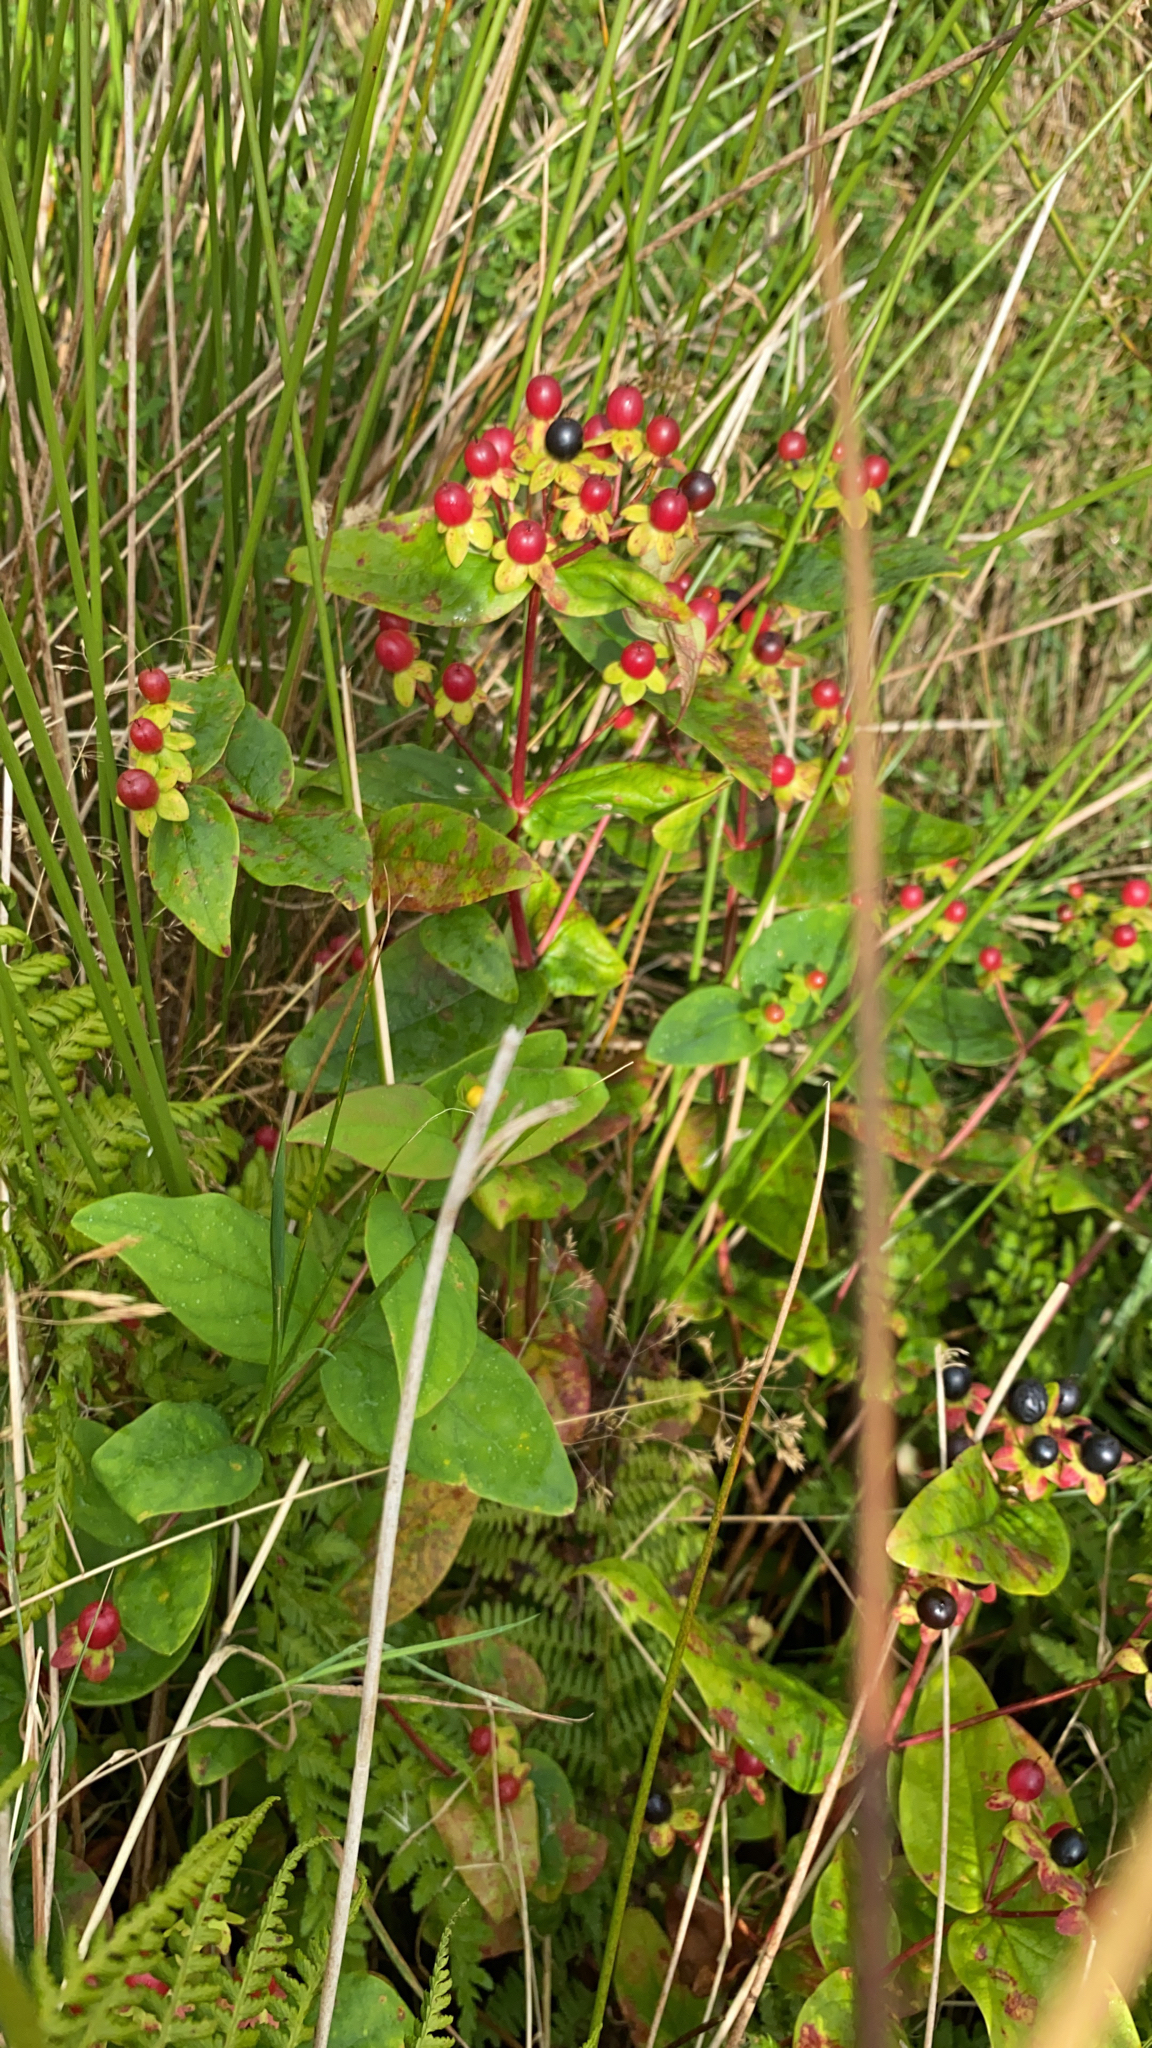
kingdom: Plantae
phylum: Tracheophyta
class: Magnoliopsida
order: Malpighiales
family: Hypericaceae
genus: Hypericum
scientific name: Hypericum androsaemum
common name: Sweet-amber
